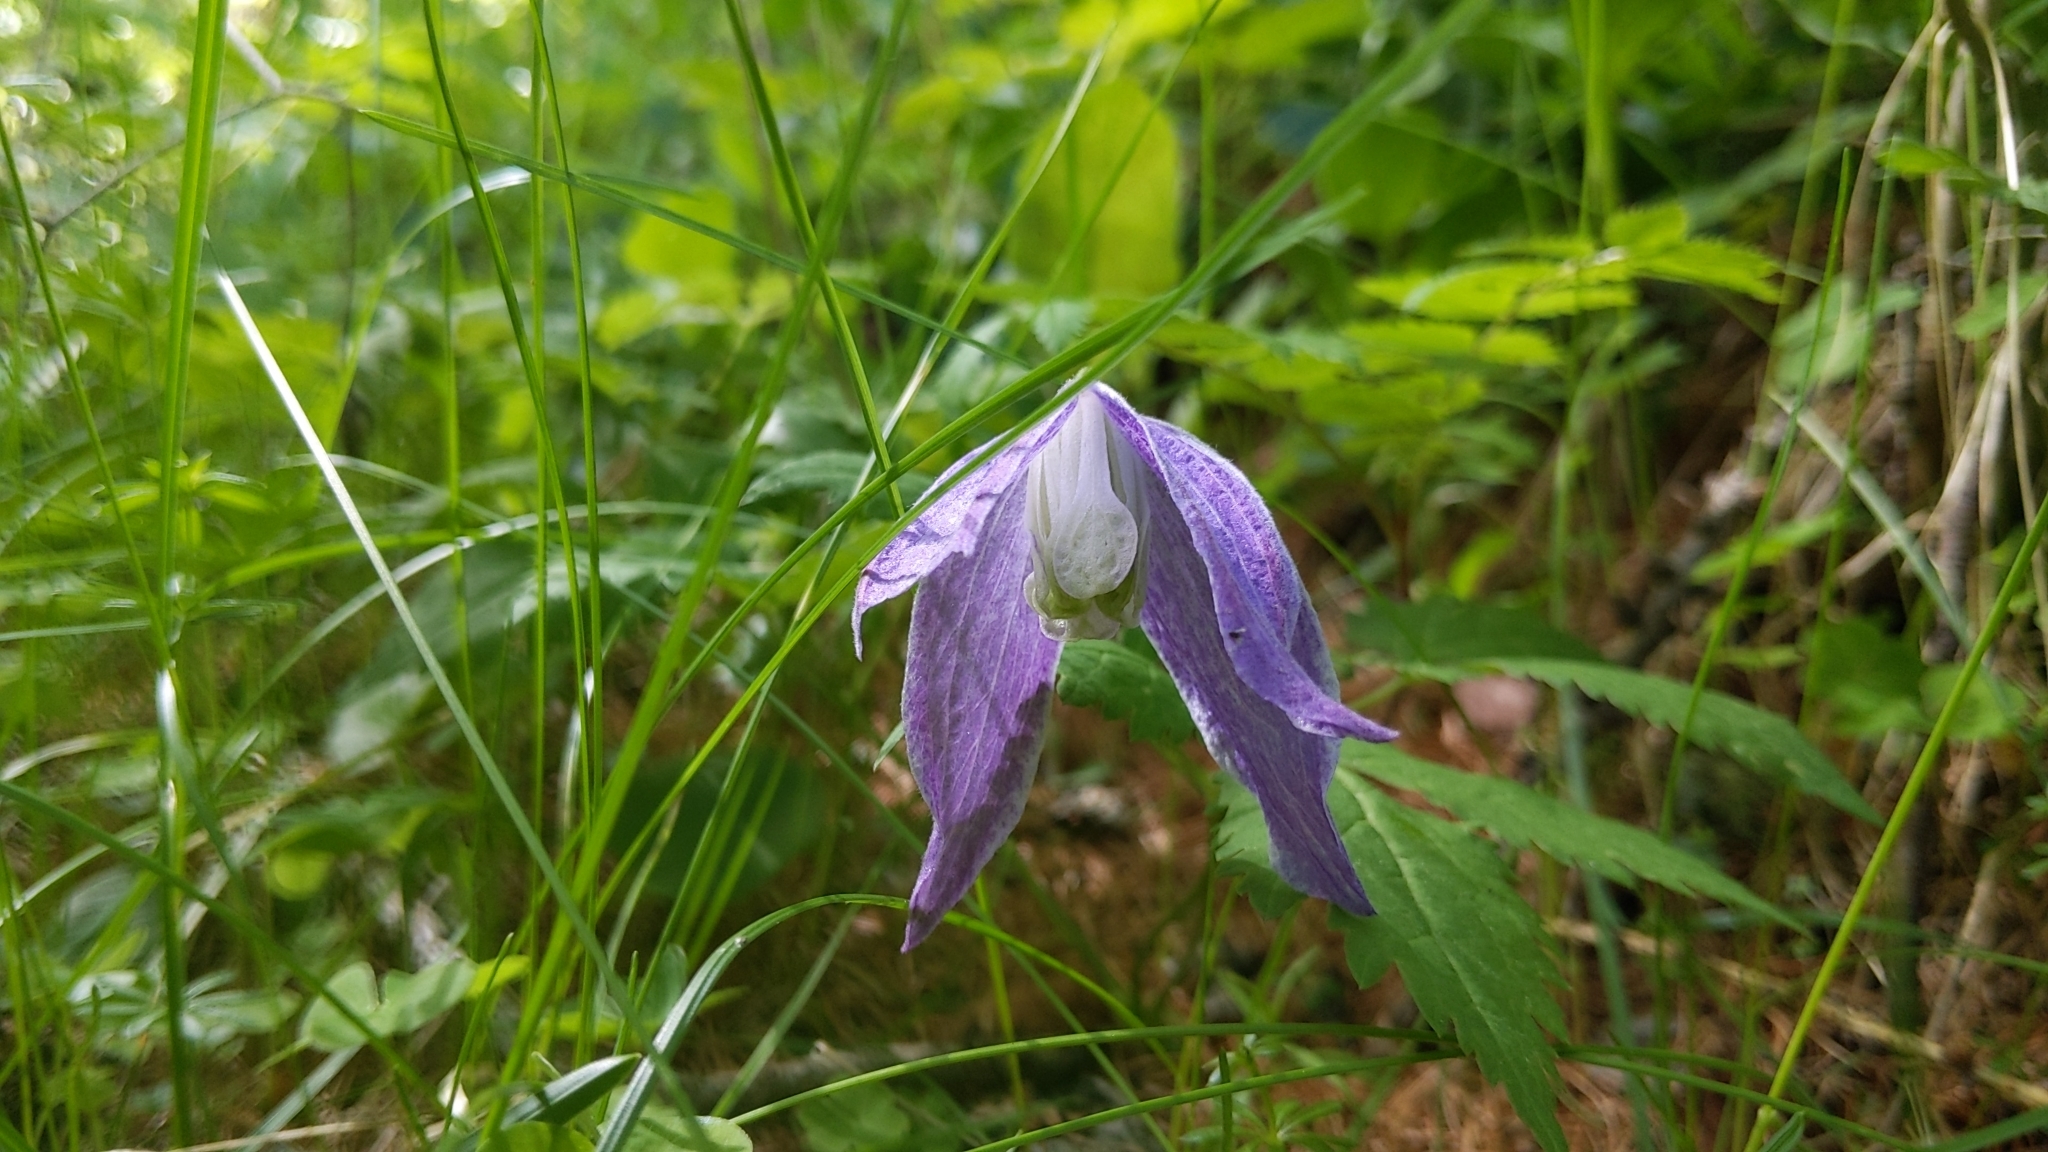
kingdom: Plantae
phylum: Tracheophyta
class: Magnoliopsida
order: Ranunculales
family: Ranunculaceae
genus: Clematis
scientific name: Clematis alpina
